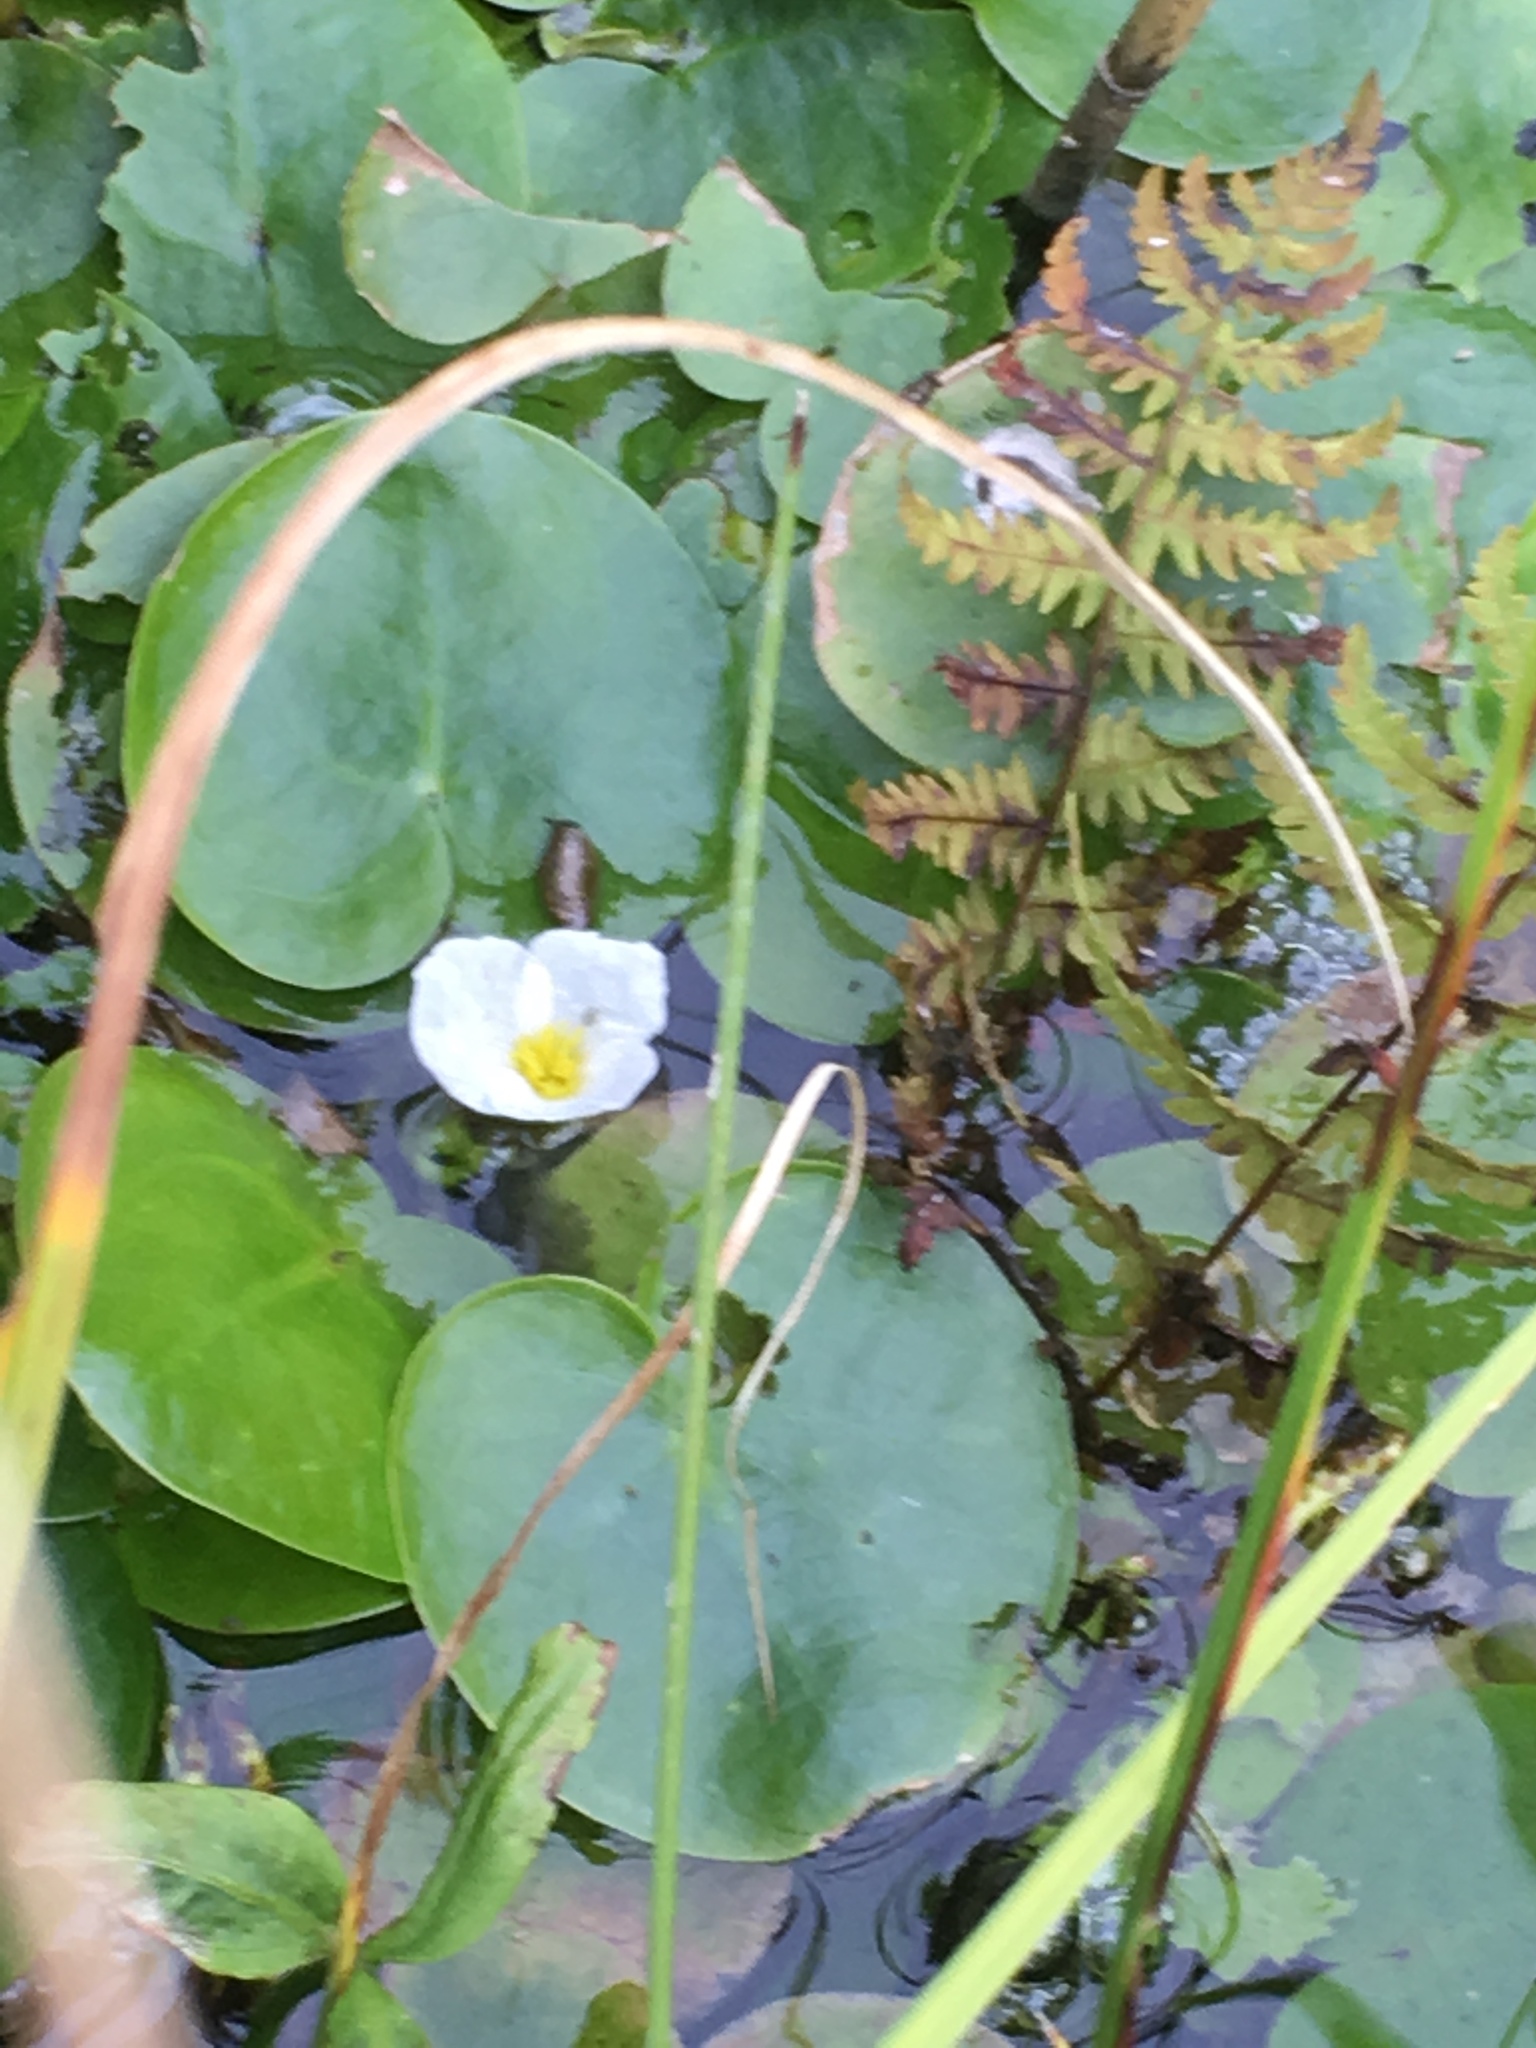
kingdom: Plantae
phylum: Tracheophyta
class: Liliopsida
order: Alismatales
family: Hydrocharitaceae
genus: Hydrocharis
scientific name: Hydrocharis morsus-ranae
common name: Frogbit
